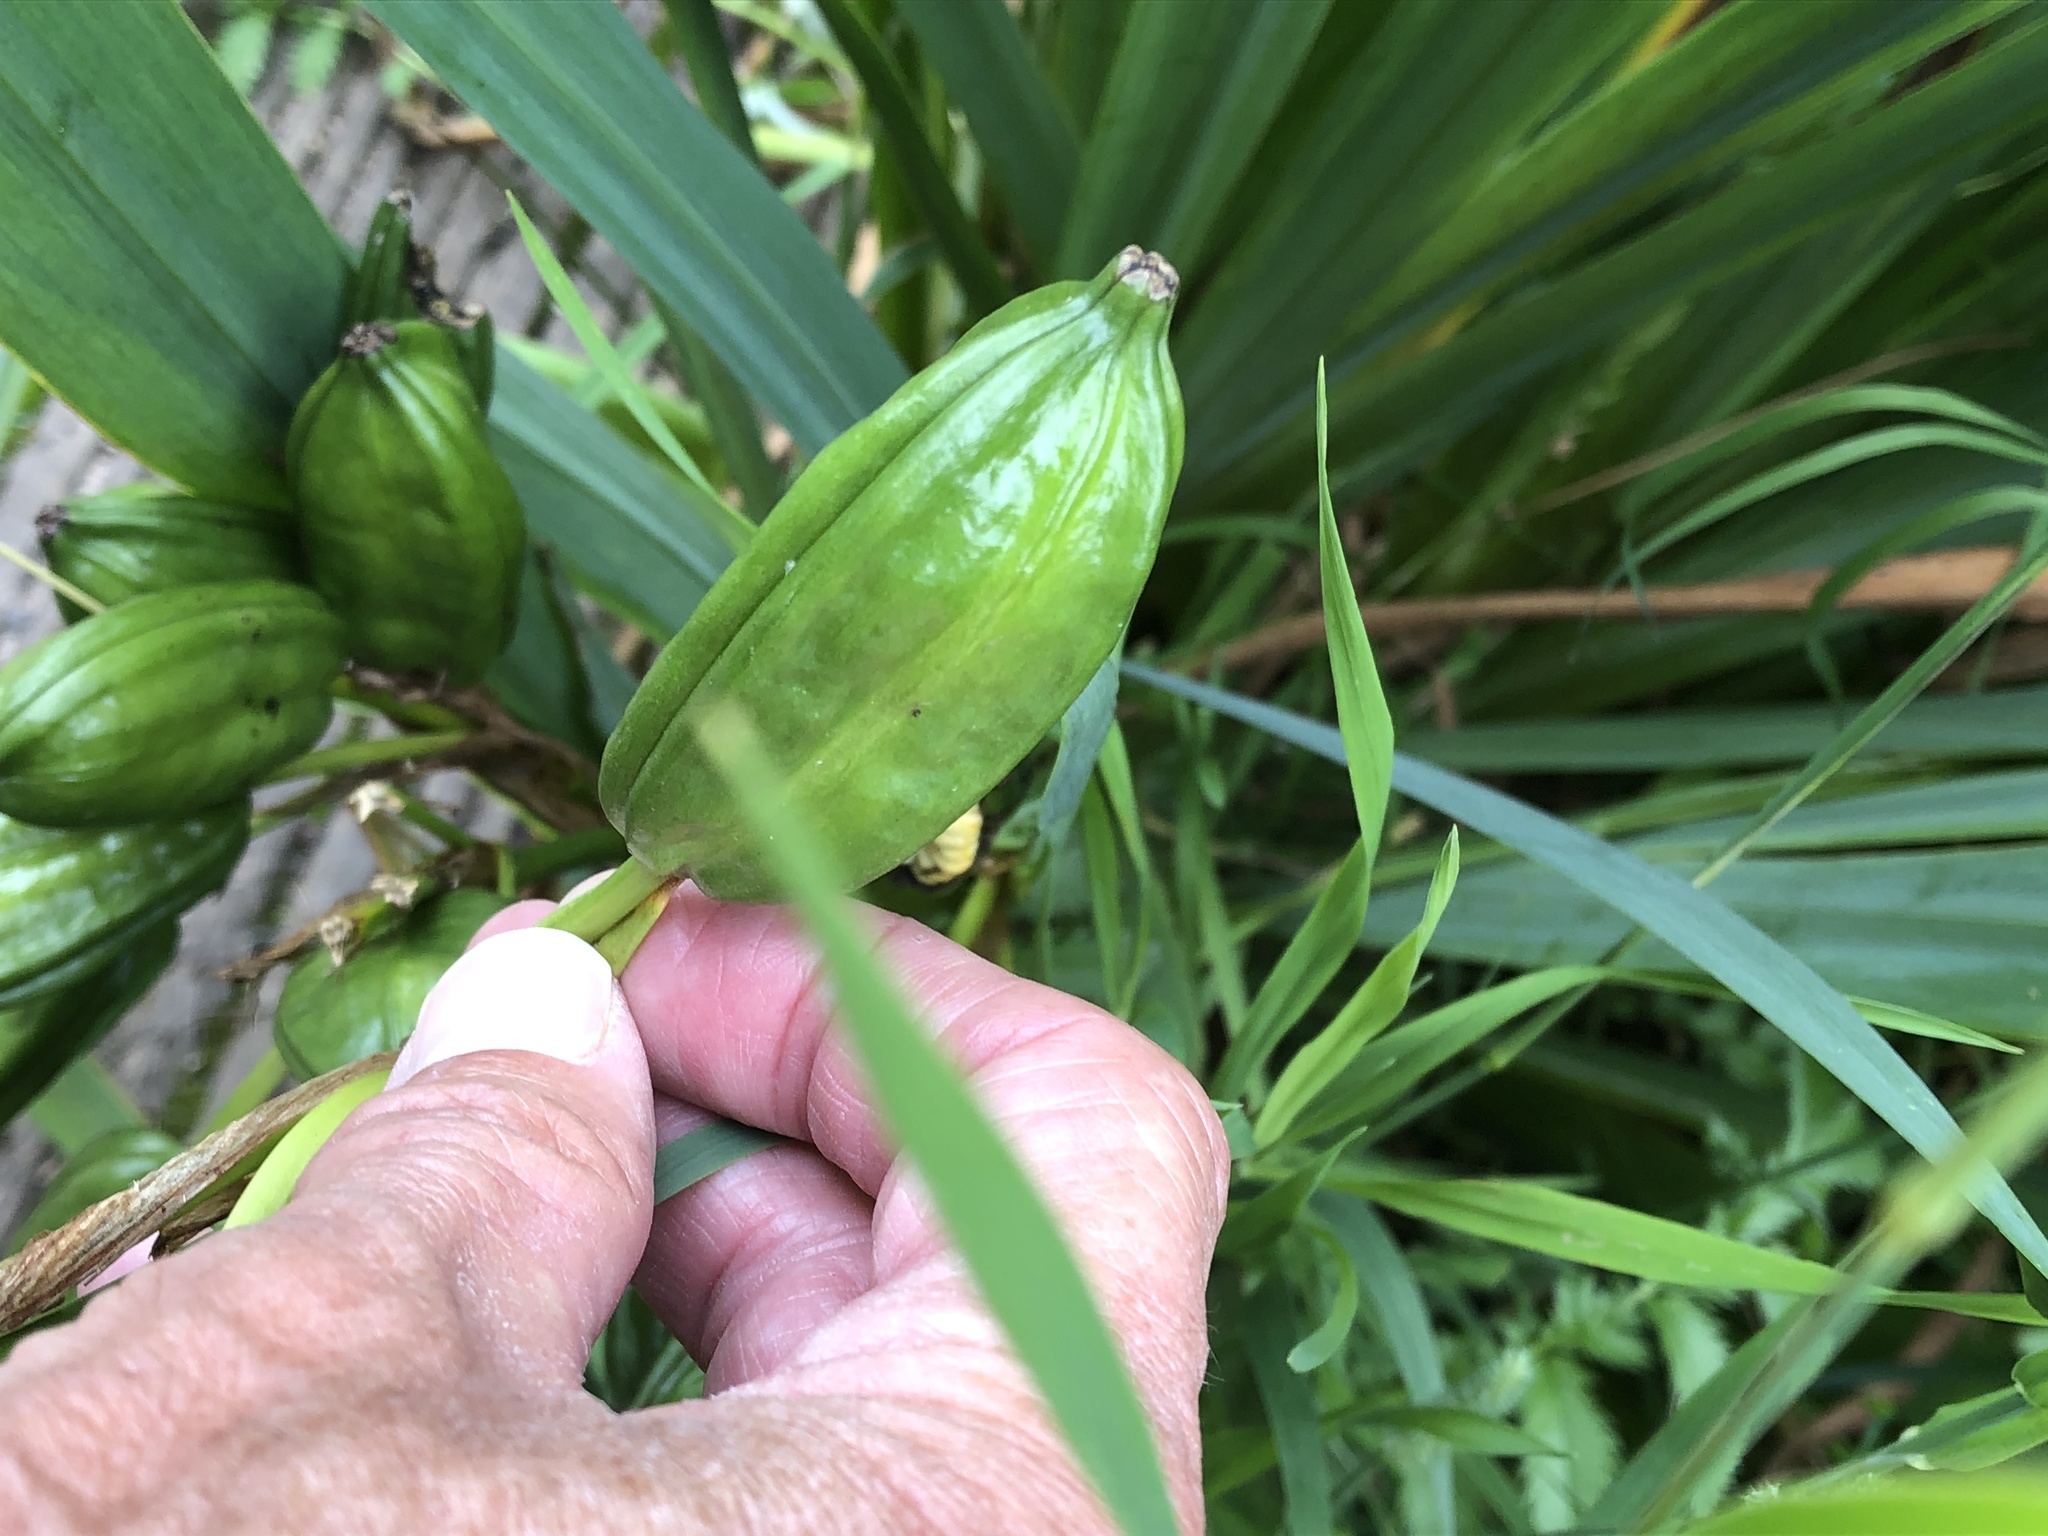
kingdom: Plantae
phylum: Tracheophyta
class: Liliopsida
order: Asparagales
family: Iridaceae
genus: Iris
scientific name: Iris pseudacorus
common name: Yellow flag
